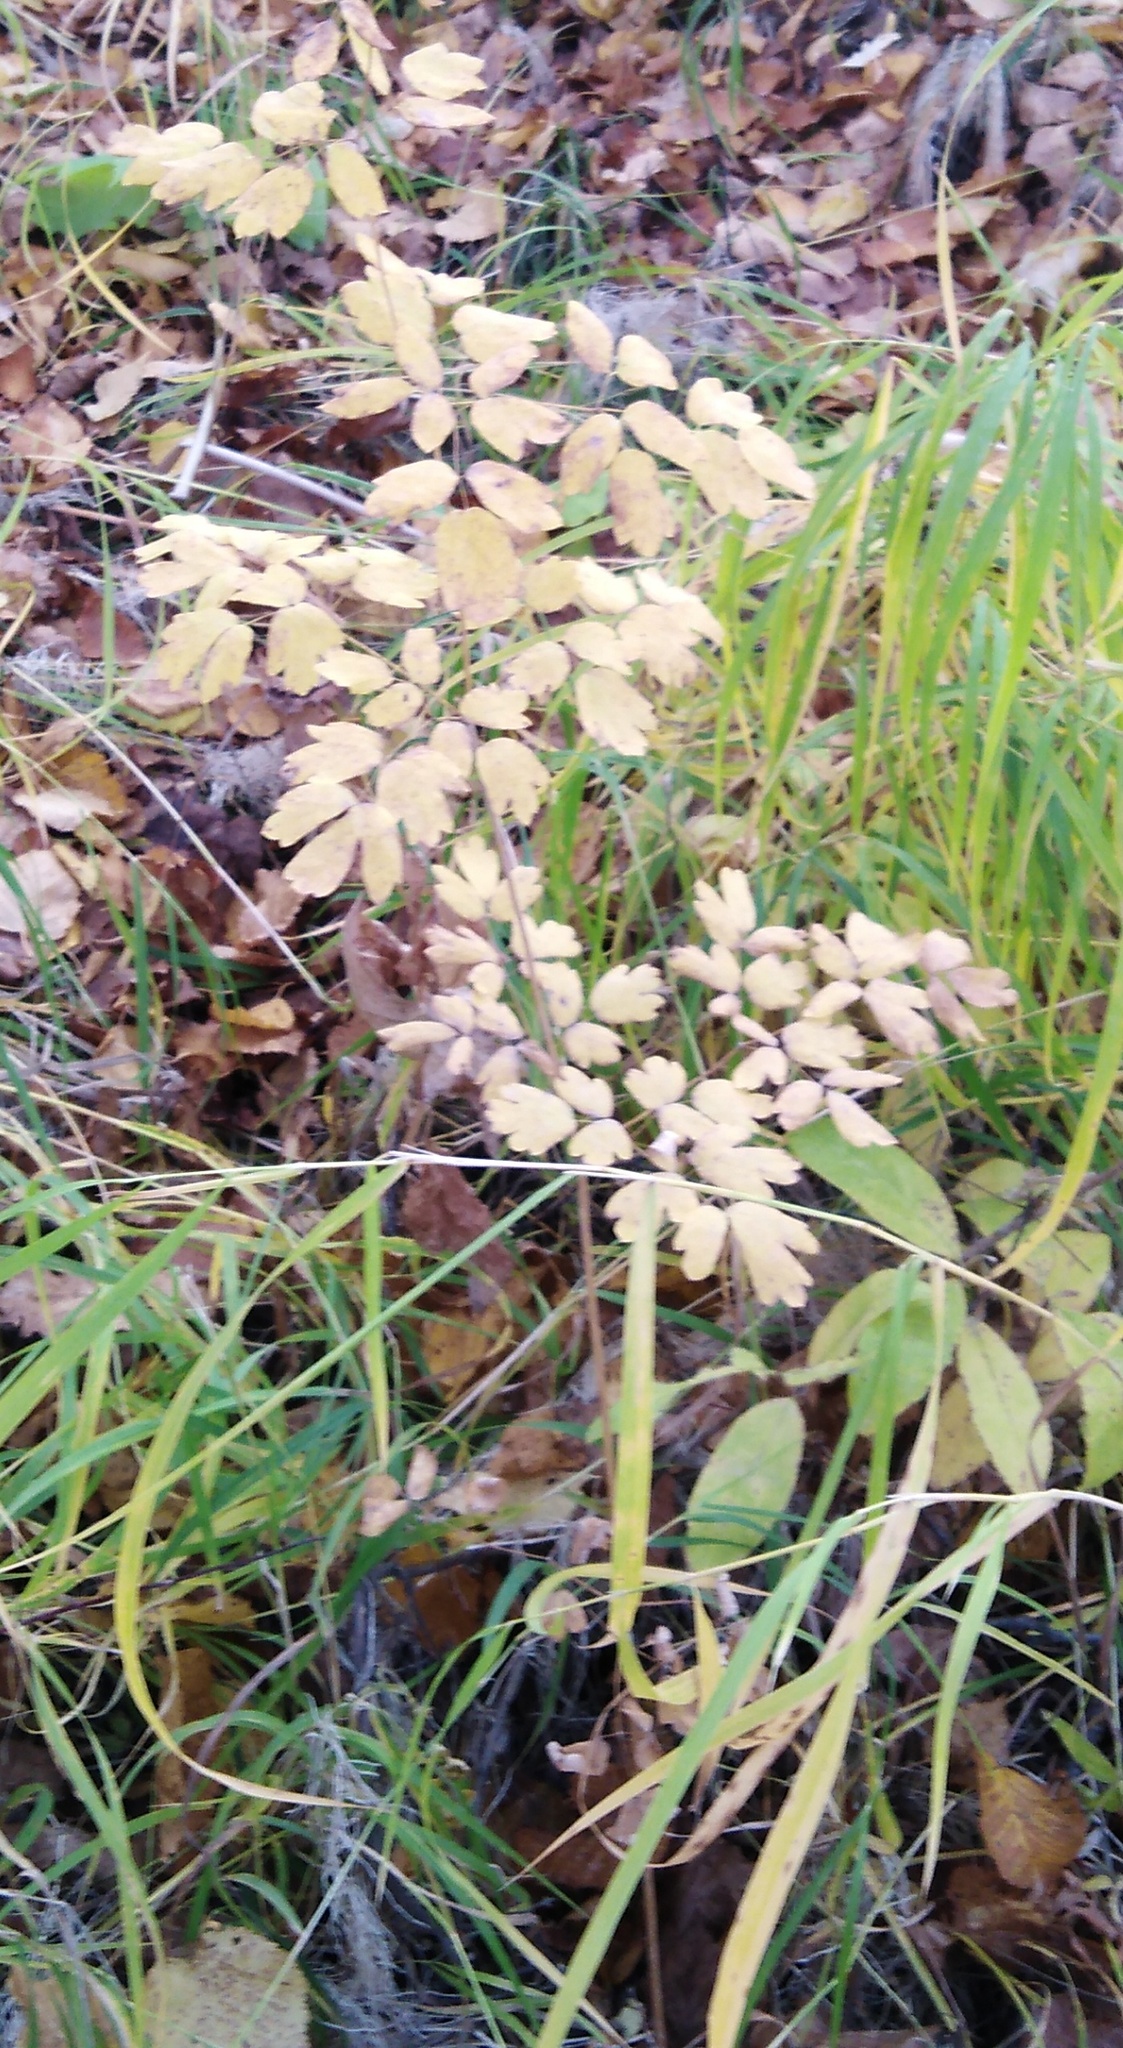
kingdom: Plantae
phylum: Tracheophyta
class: Magnoliopsida
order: Ranunculales
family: Ranunculaceae
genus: Thalictrum
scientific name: Thalictrum minus
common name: Lesser meadow-rue
